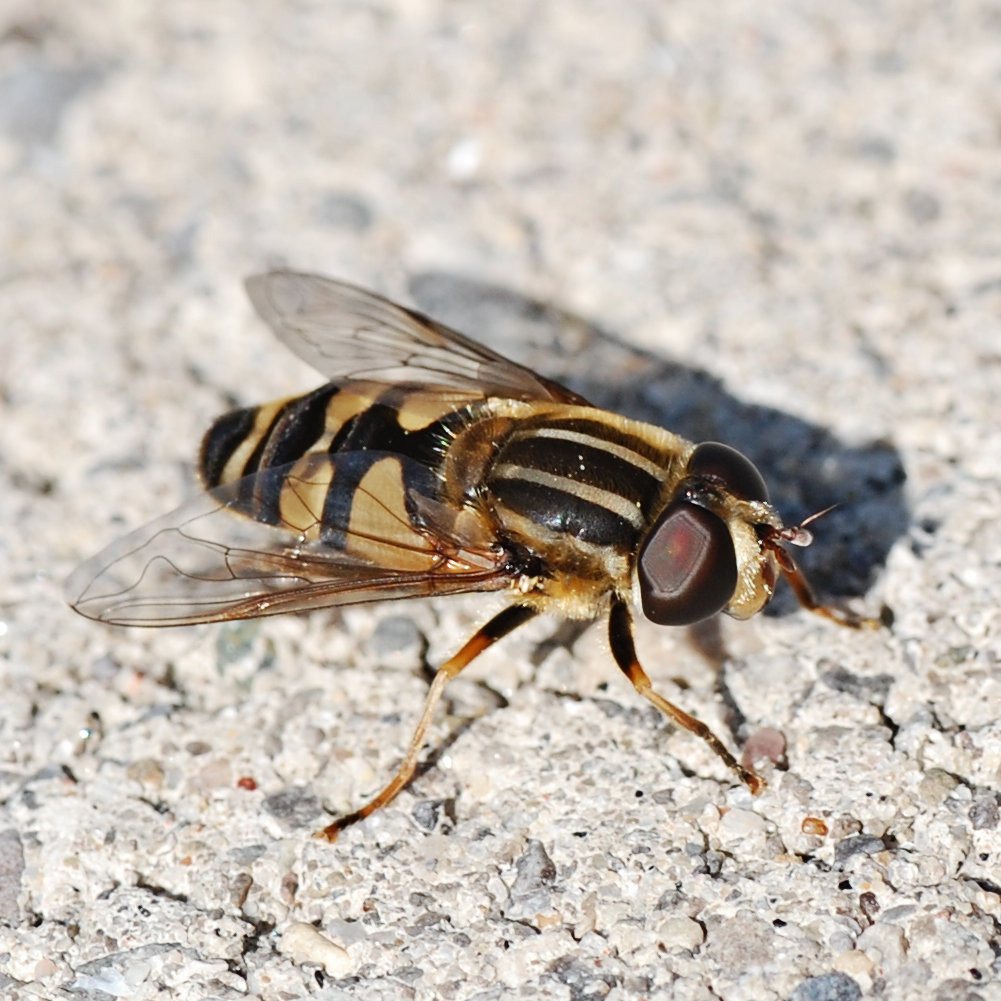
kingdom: Animalia
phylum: Arthropoda
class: Insecta
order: Diptera
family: Syrphidae
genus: Helophilus
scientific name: Helophilus fasciatus
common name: Narrow-headed marsh fly
